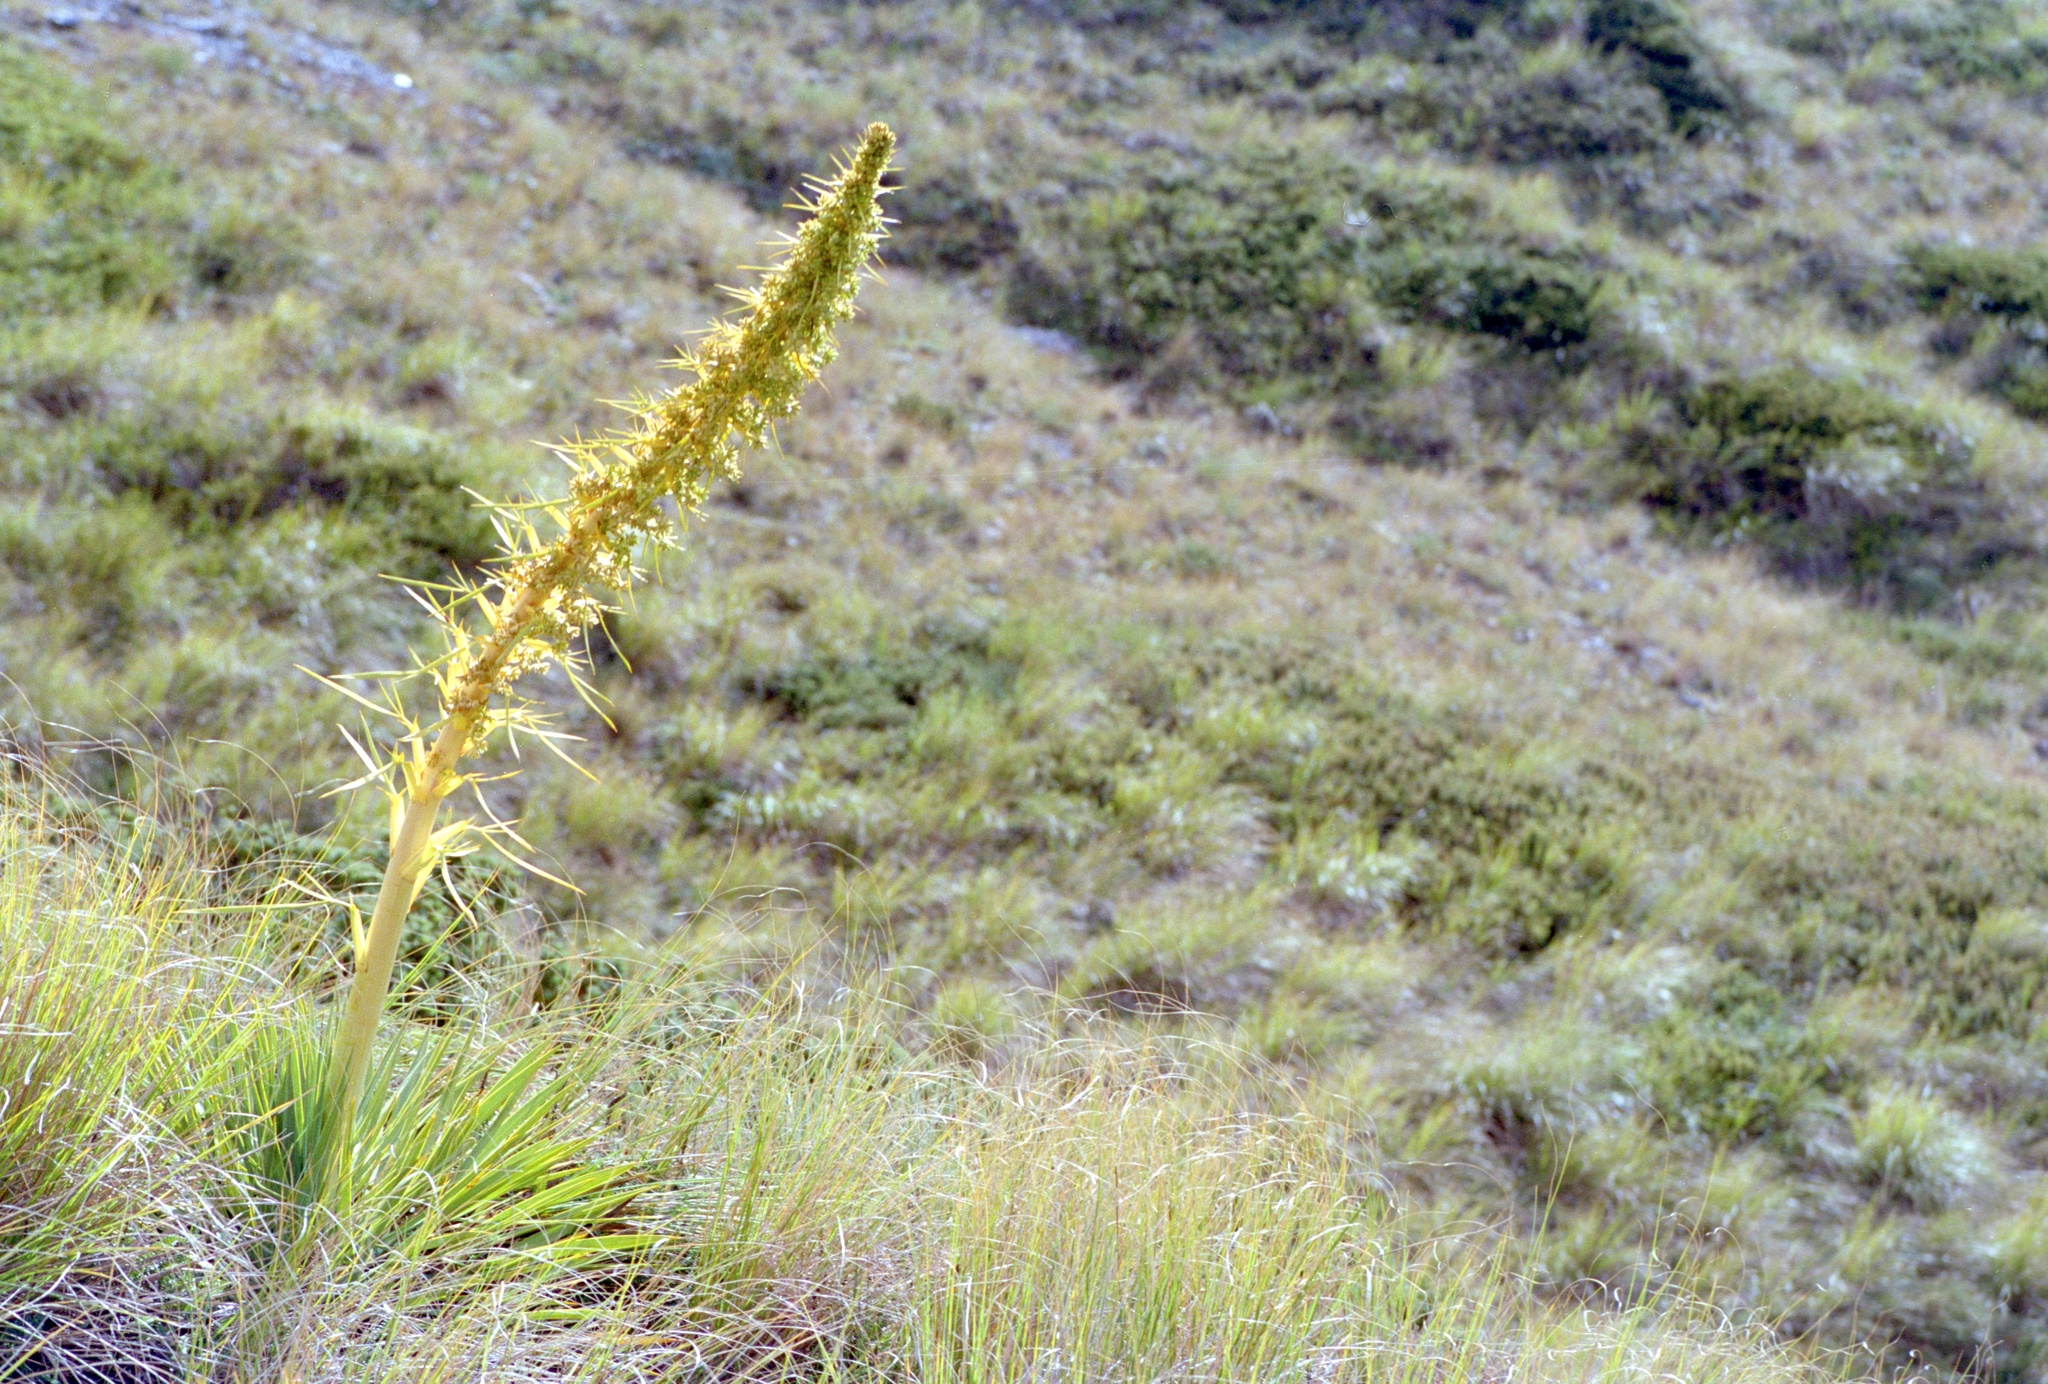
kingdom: Plantae
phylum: Tracheophyta
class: Magnoliopsida
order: Apiales
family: Apiaceae
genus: Aciphylla
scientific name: Aciphylla aurea
